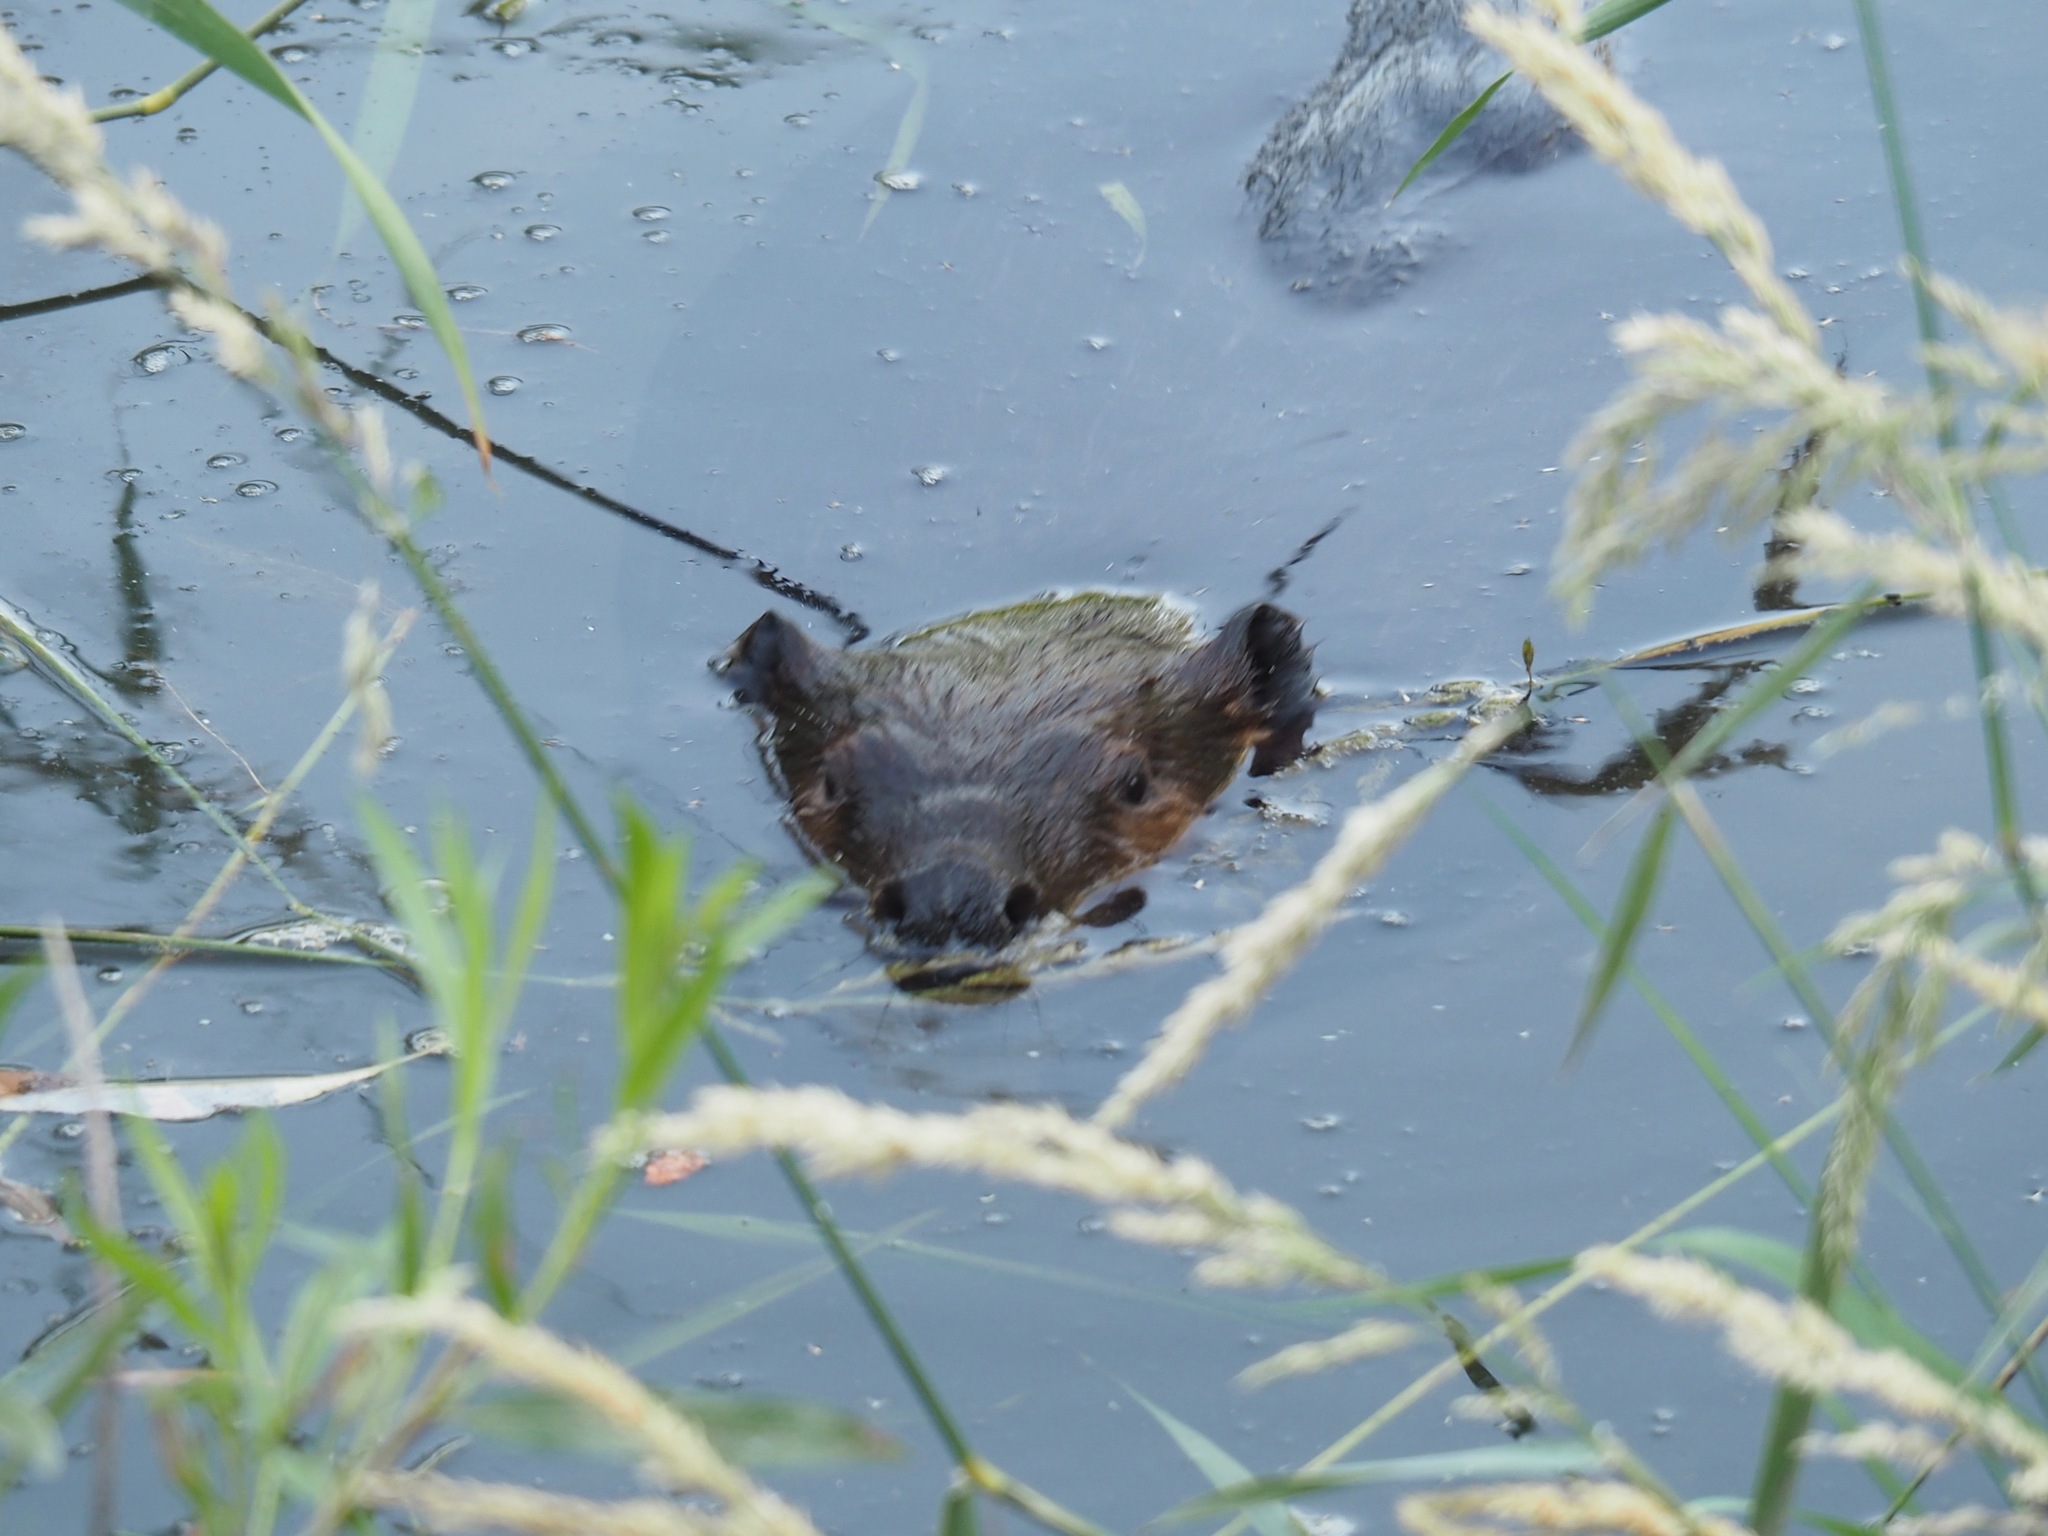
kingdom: Animalia
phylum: Chordata
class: Mammalia
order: Rodentia
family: Castoridae
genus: Castor
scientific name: Castor canadensis
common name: American beaver
